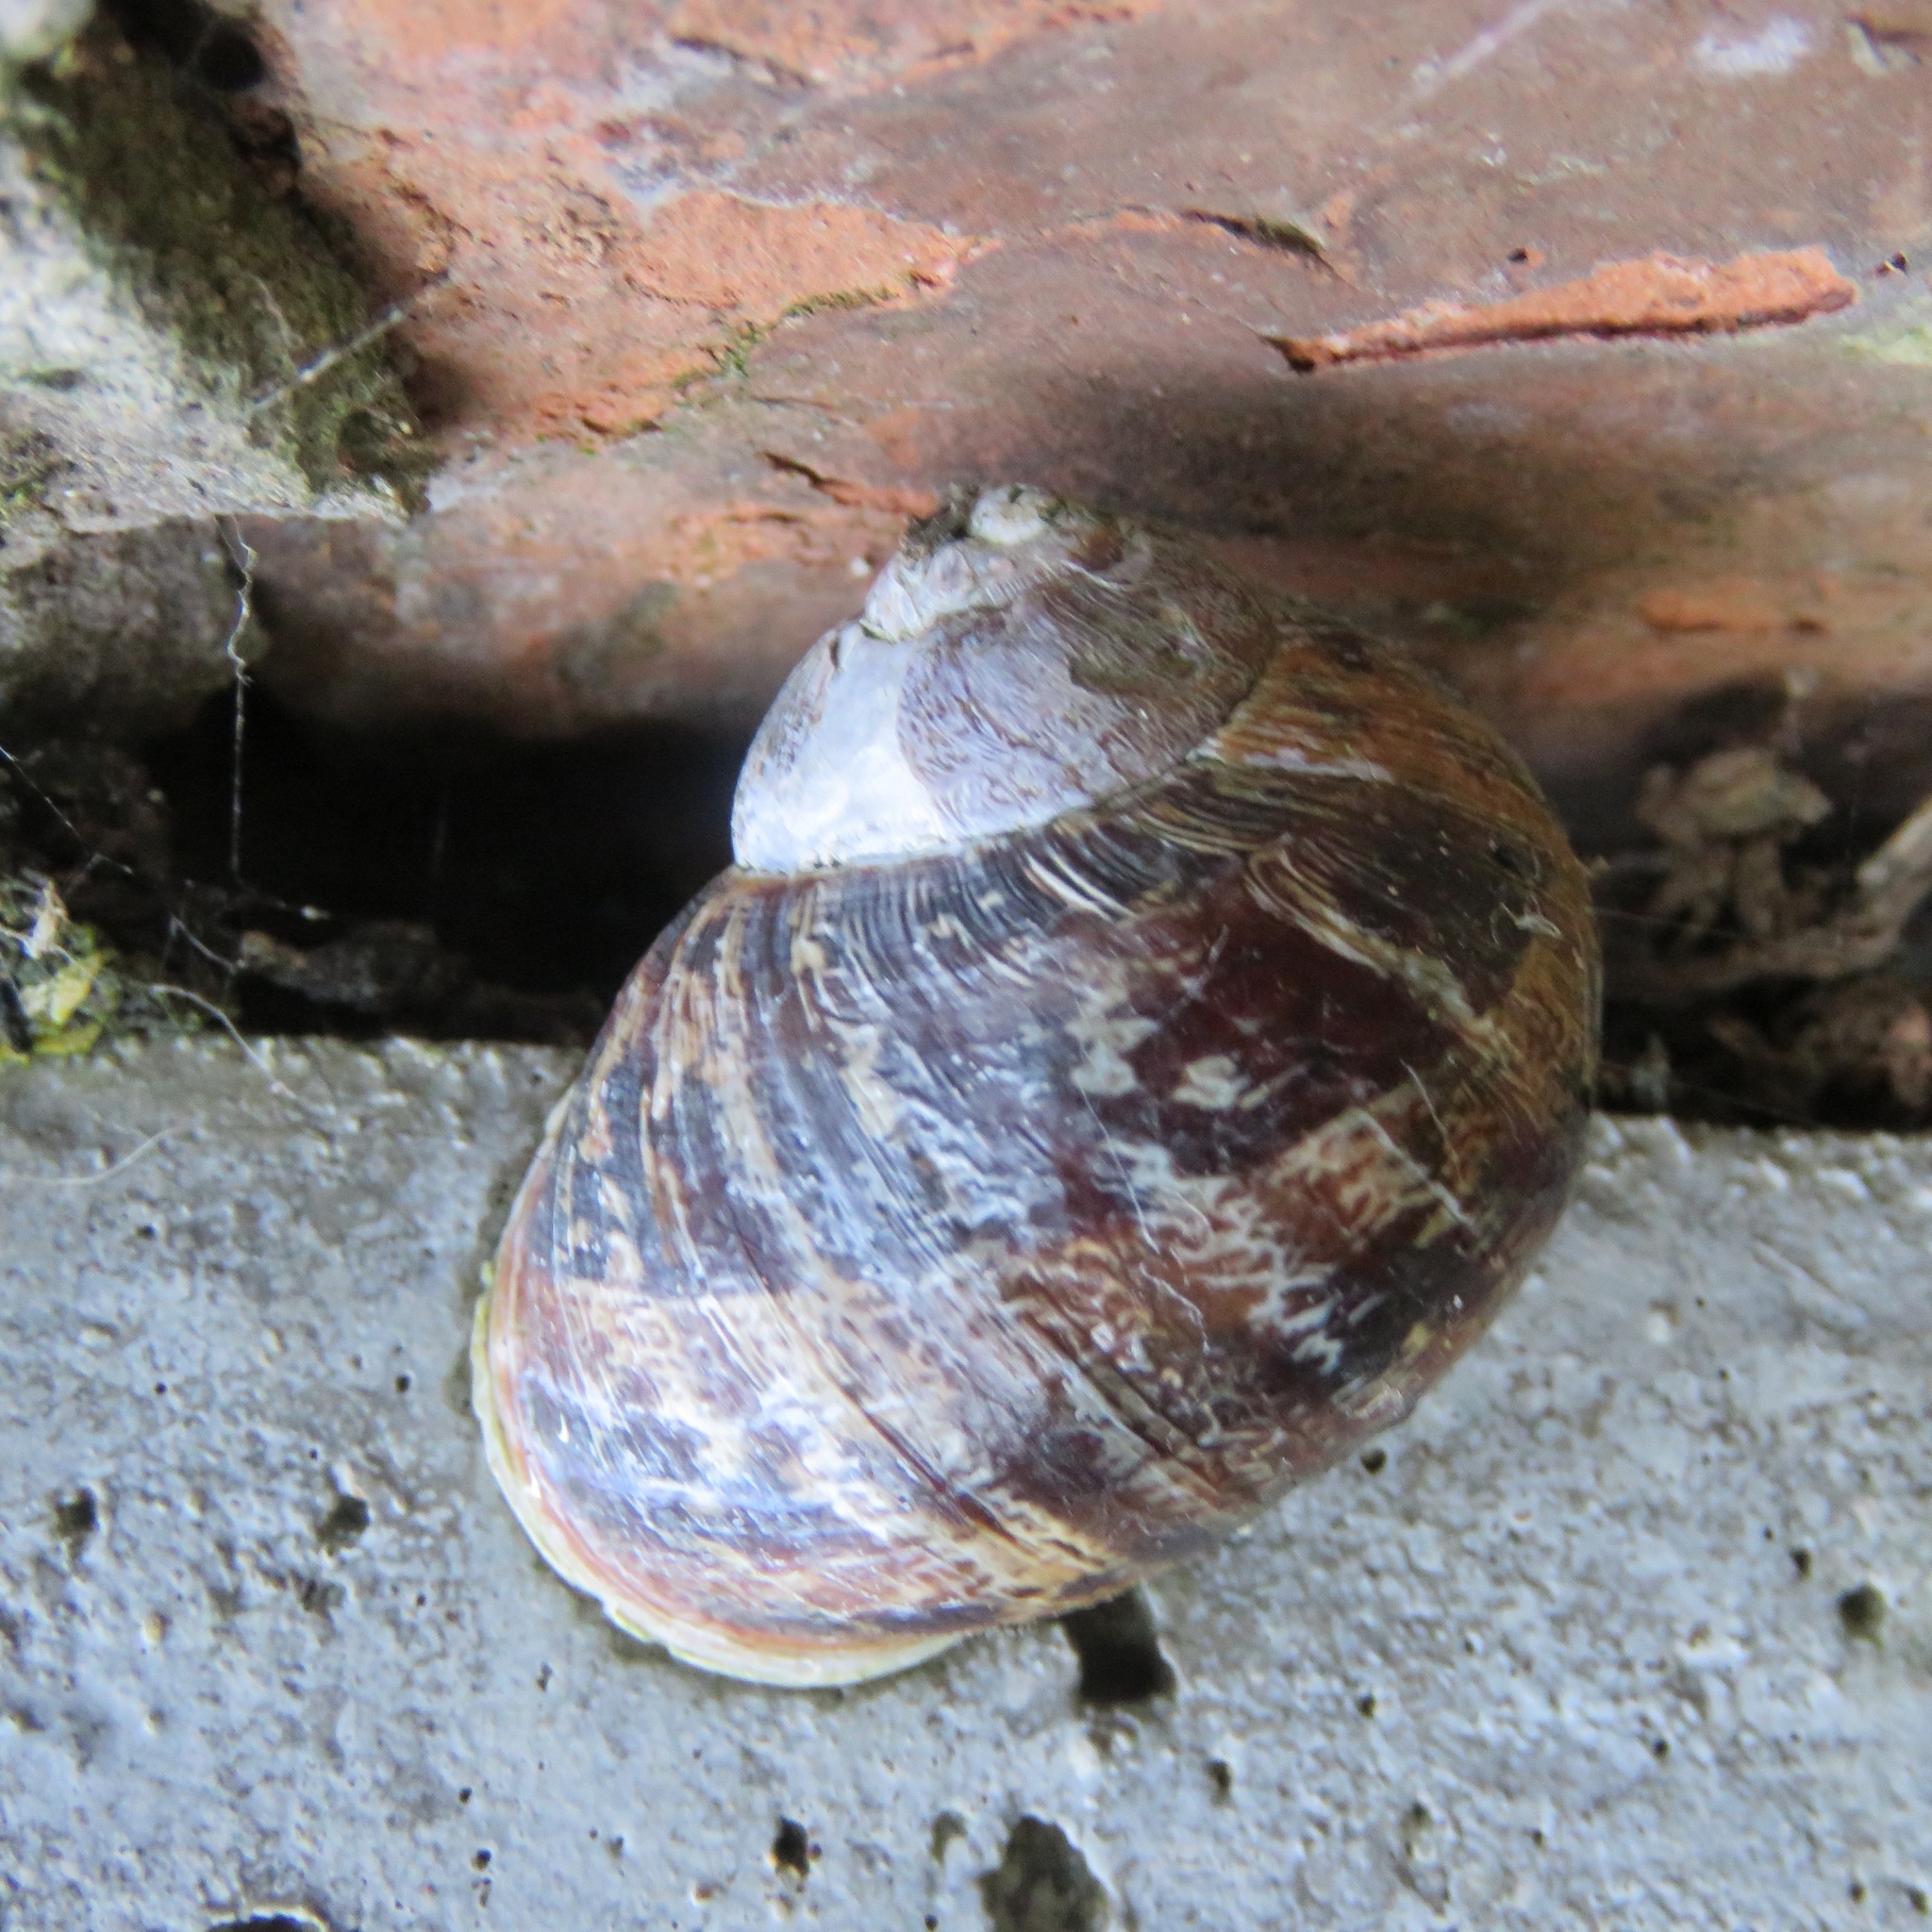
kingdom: Animalia
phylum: Mollusca
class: Gastropoda
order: Stylommatophora
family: Helicidae
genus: Cornu
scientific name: Cornu aspersum
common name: Brown garden snail
